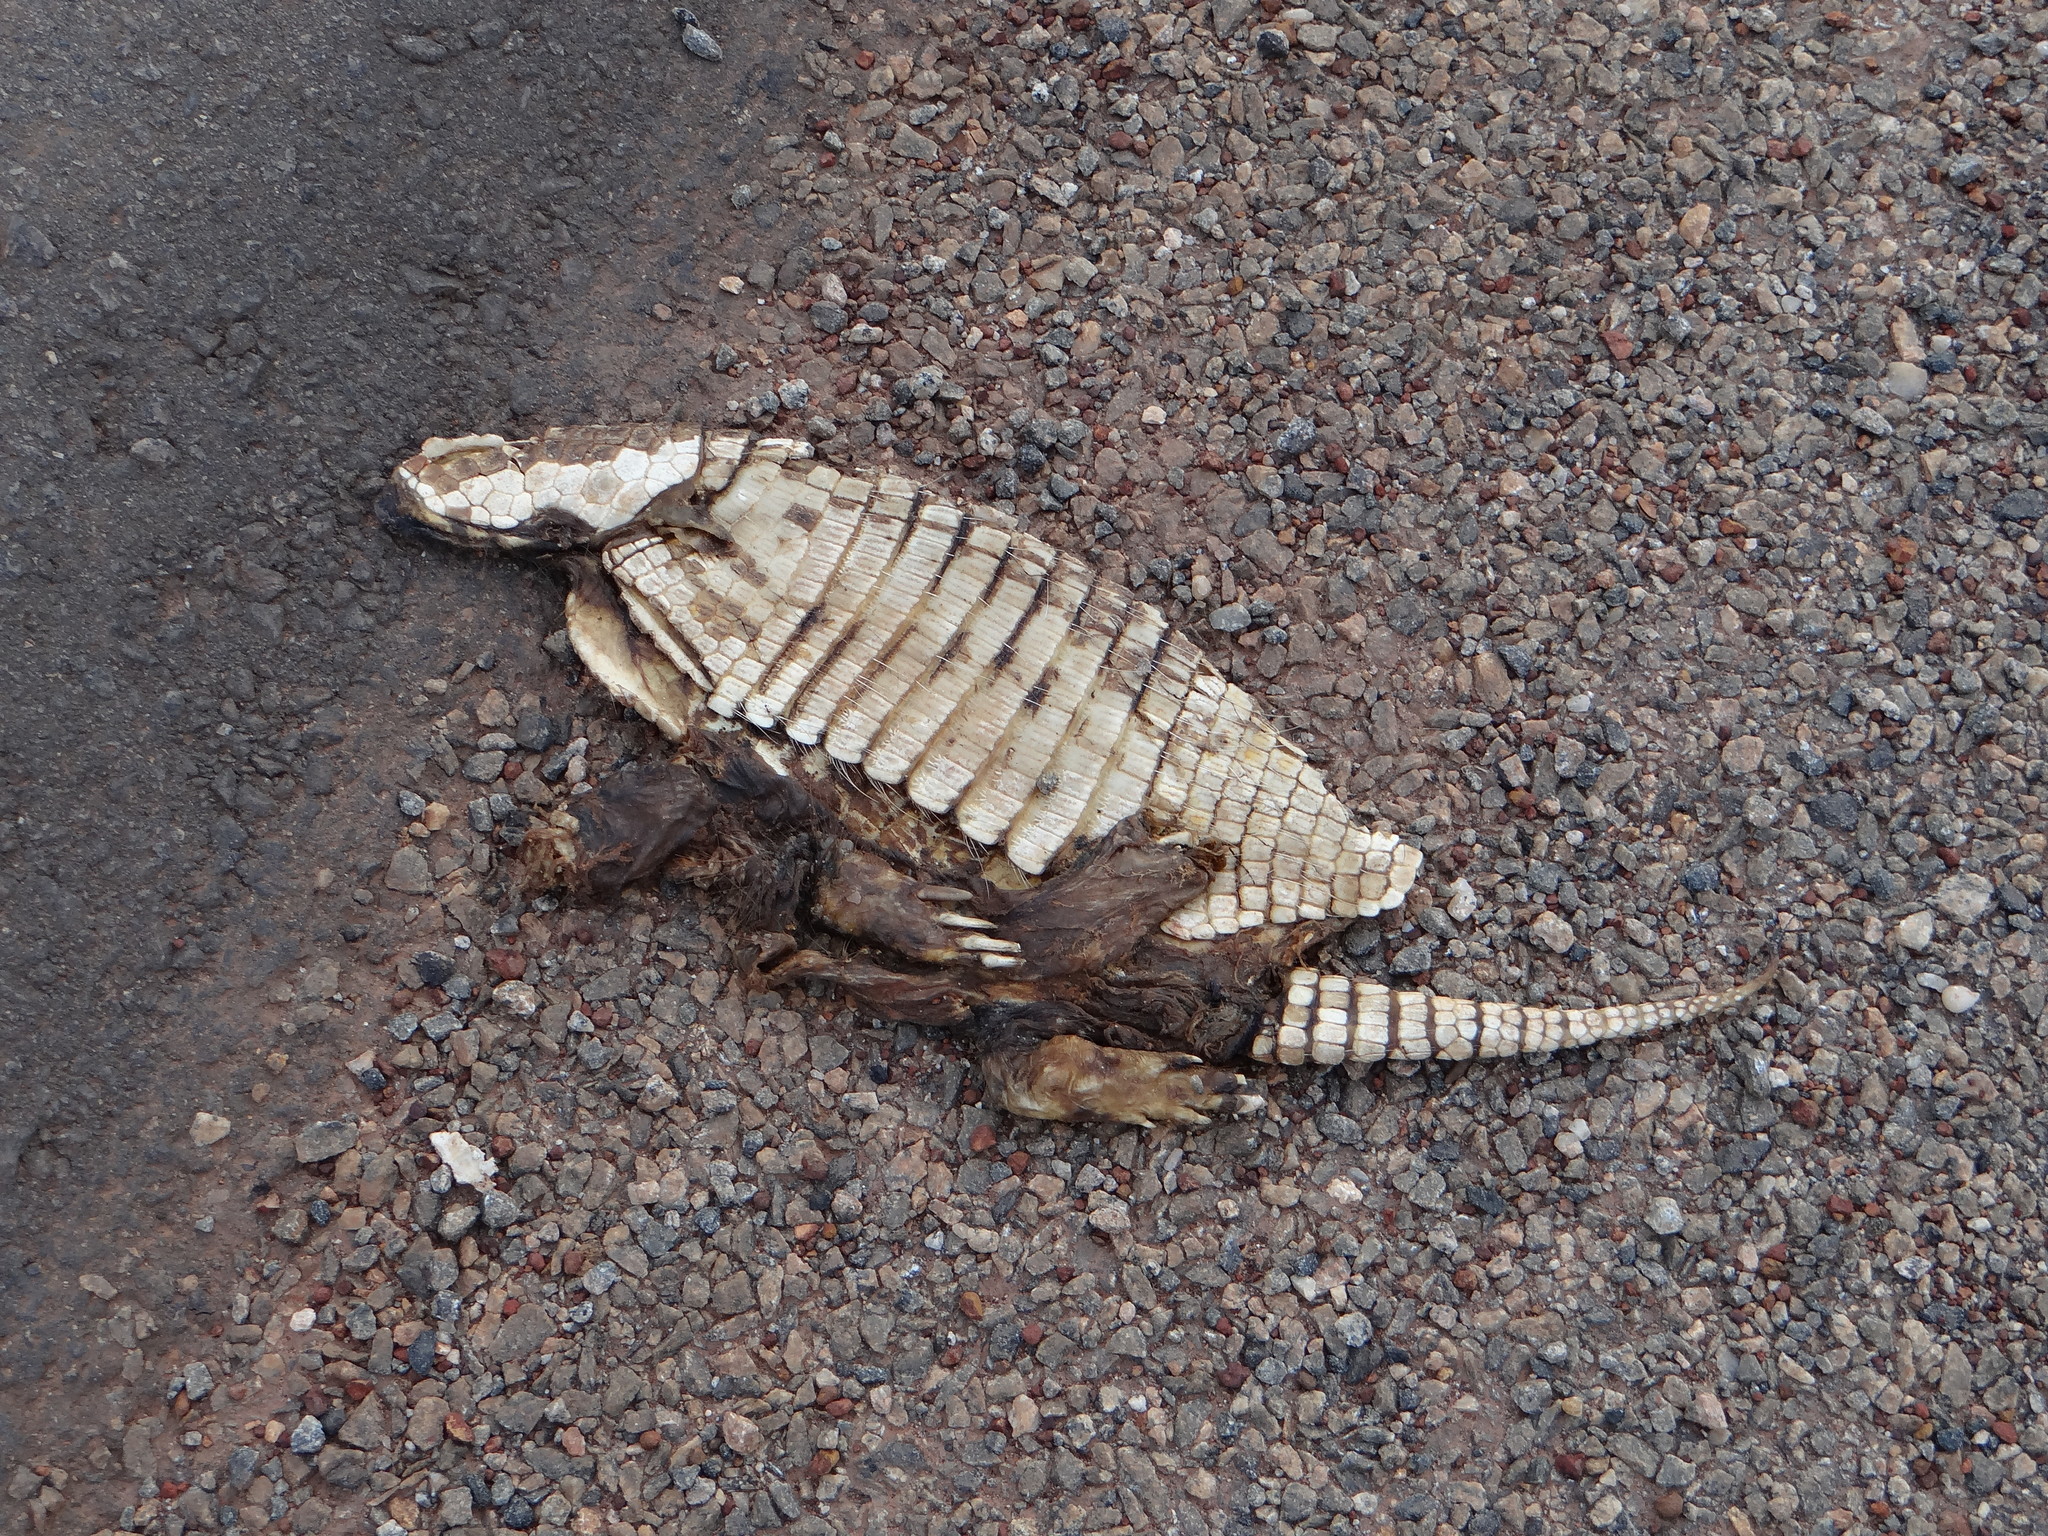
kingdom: Animalia
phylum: Chordata
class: Mammalia
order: Cingulata
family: Dasypodidae
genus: Euphractus
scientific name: Euphractus sexcinctus
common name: Six-banded armadillo
